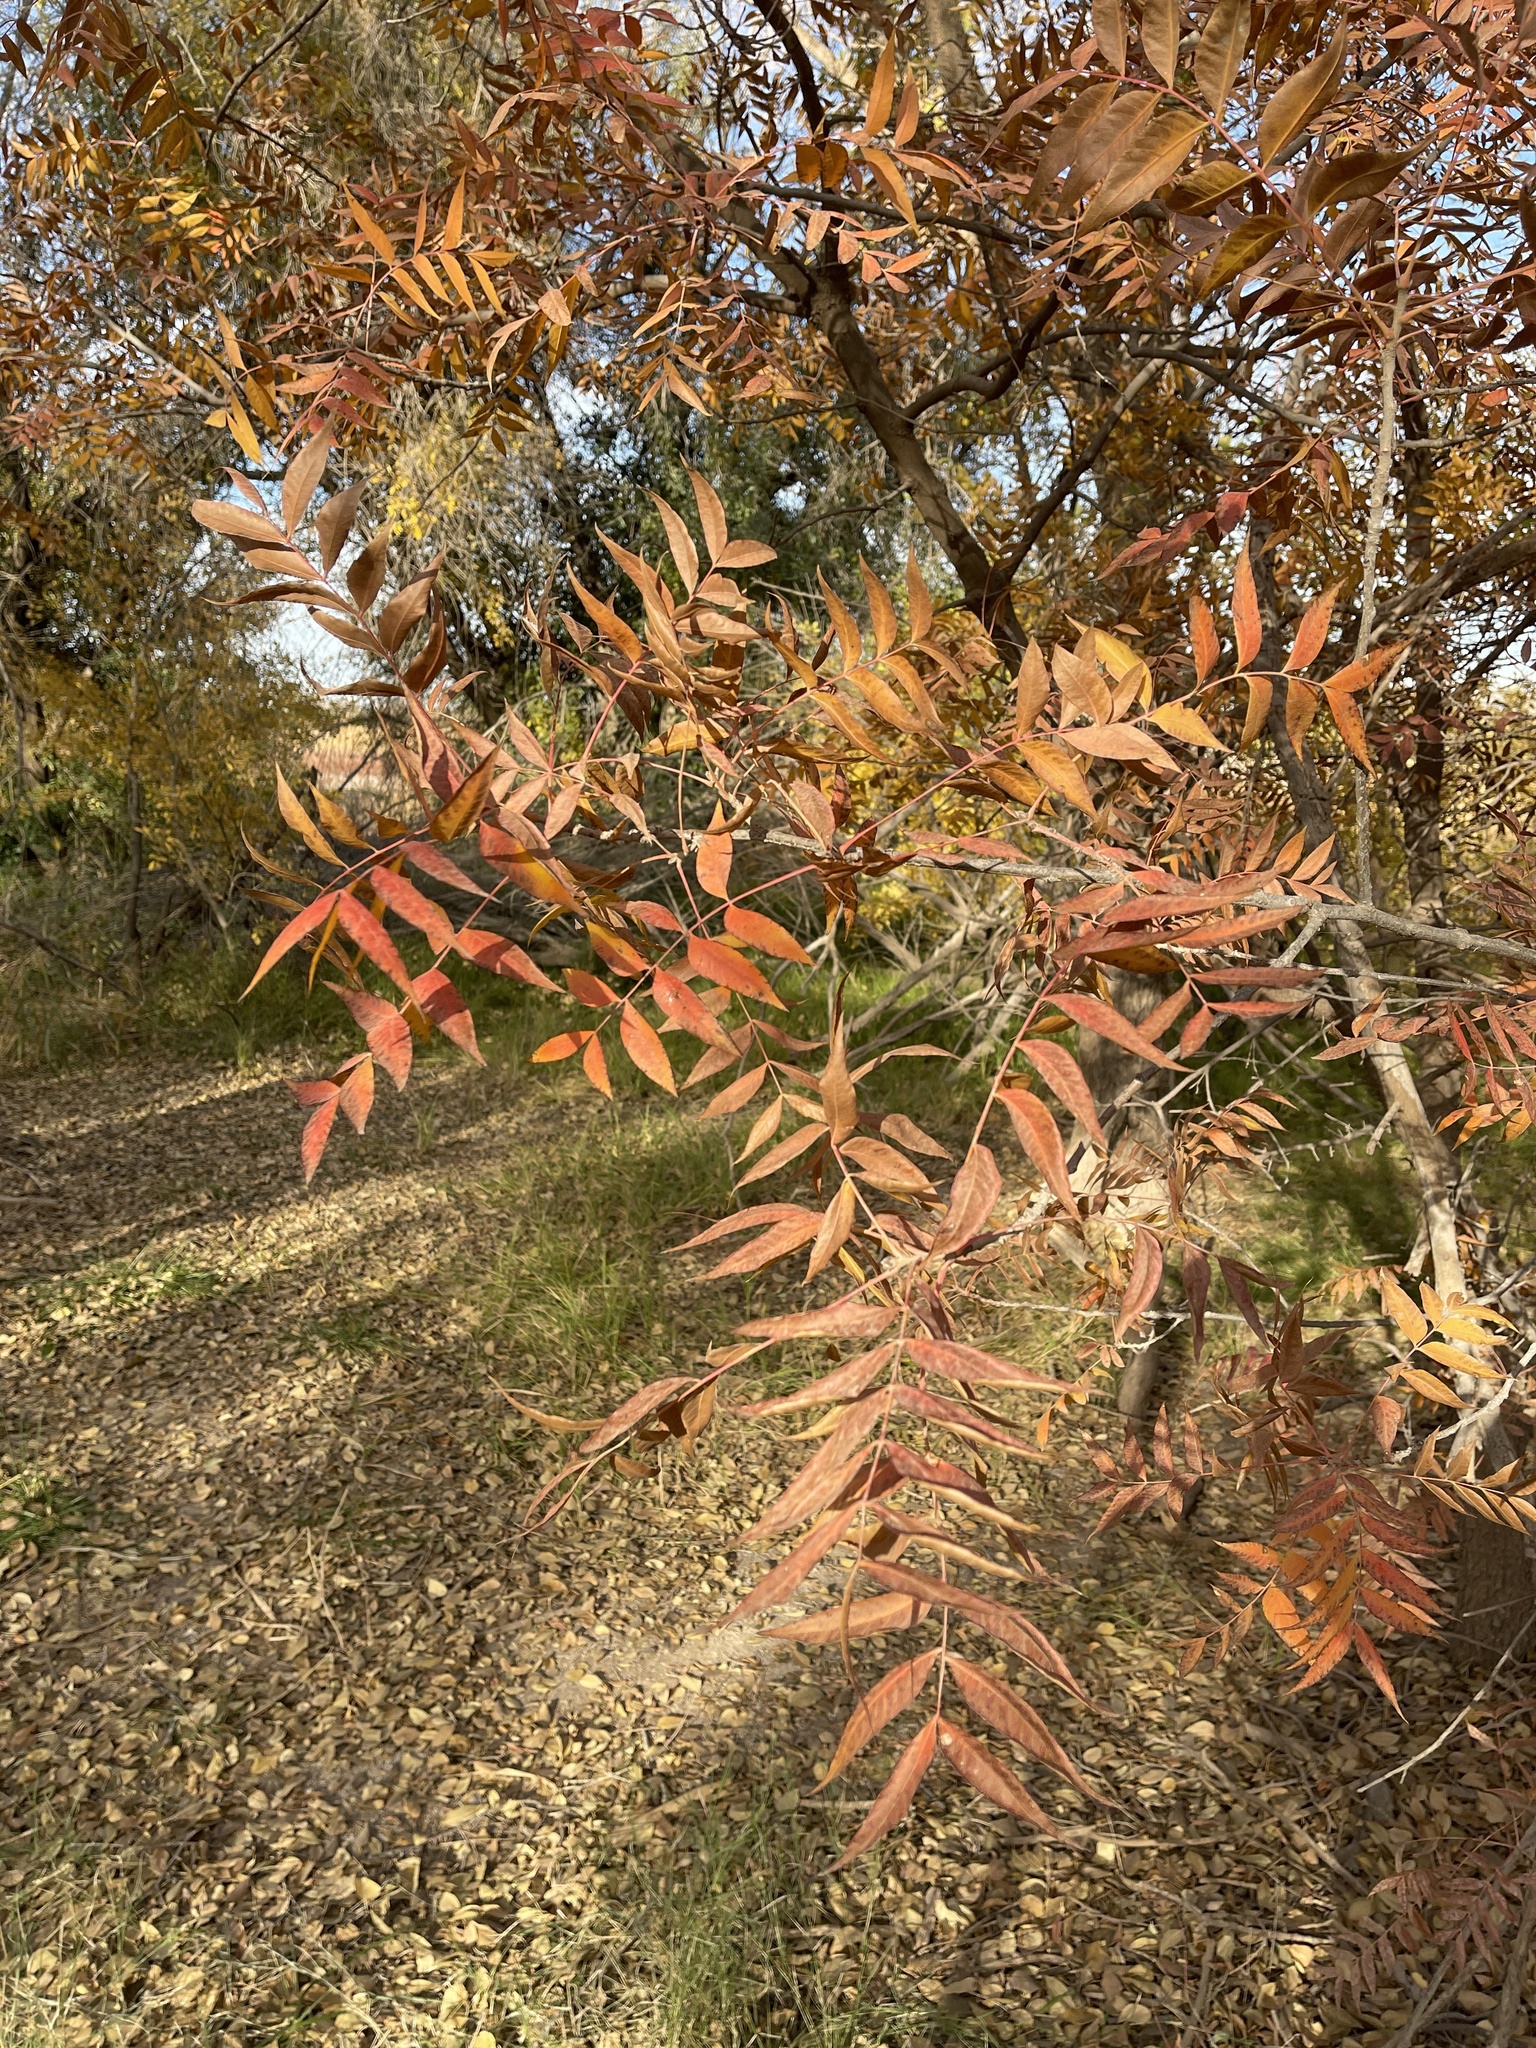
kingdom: Plantae
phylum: Tracheophyta
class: Magnoliopsida
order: Sapindales
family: Anacardiaceae
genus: Pistacia
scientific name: Pistacia chinensis
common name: Chinese pistache
